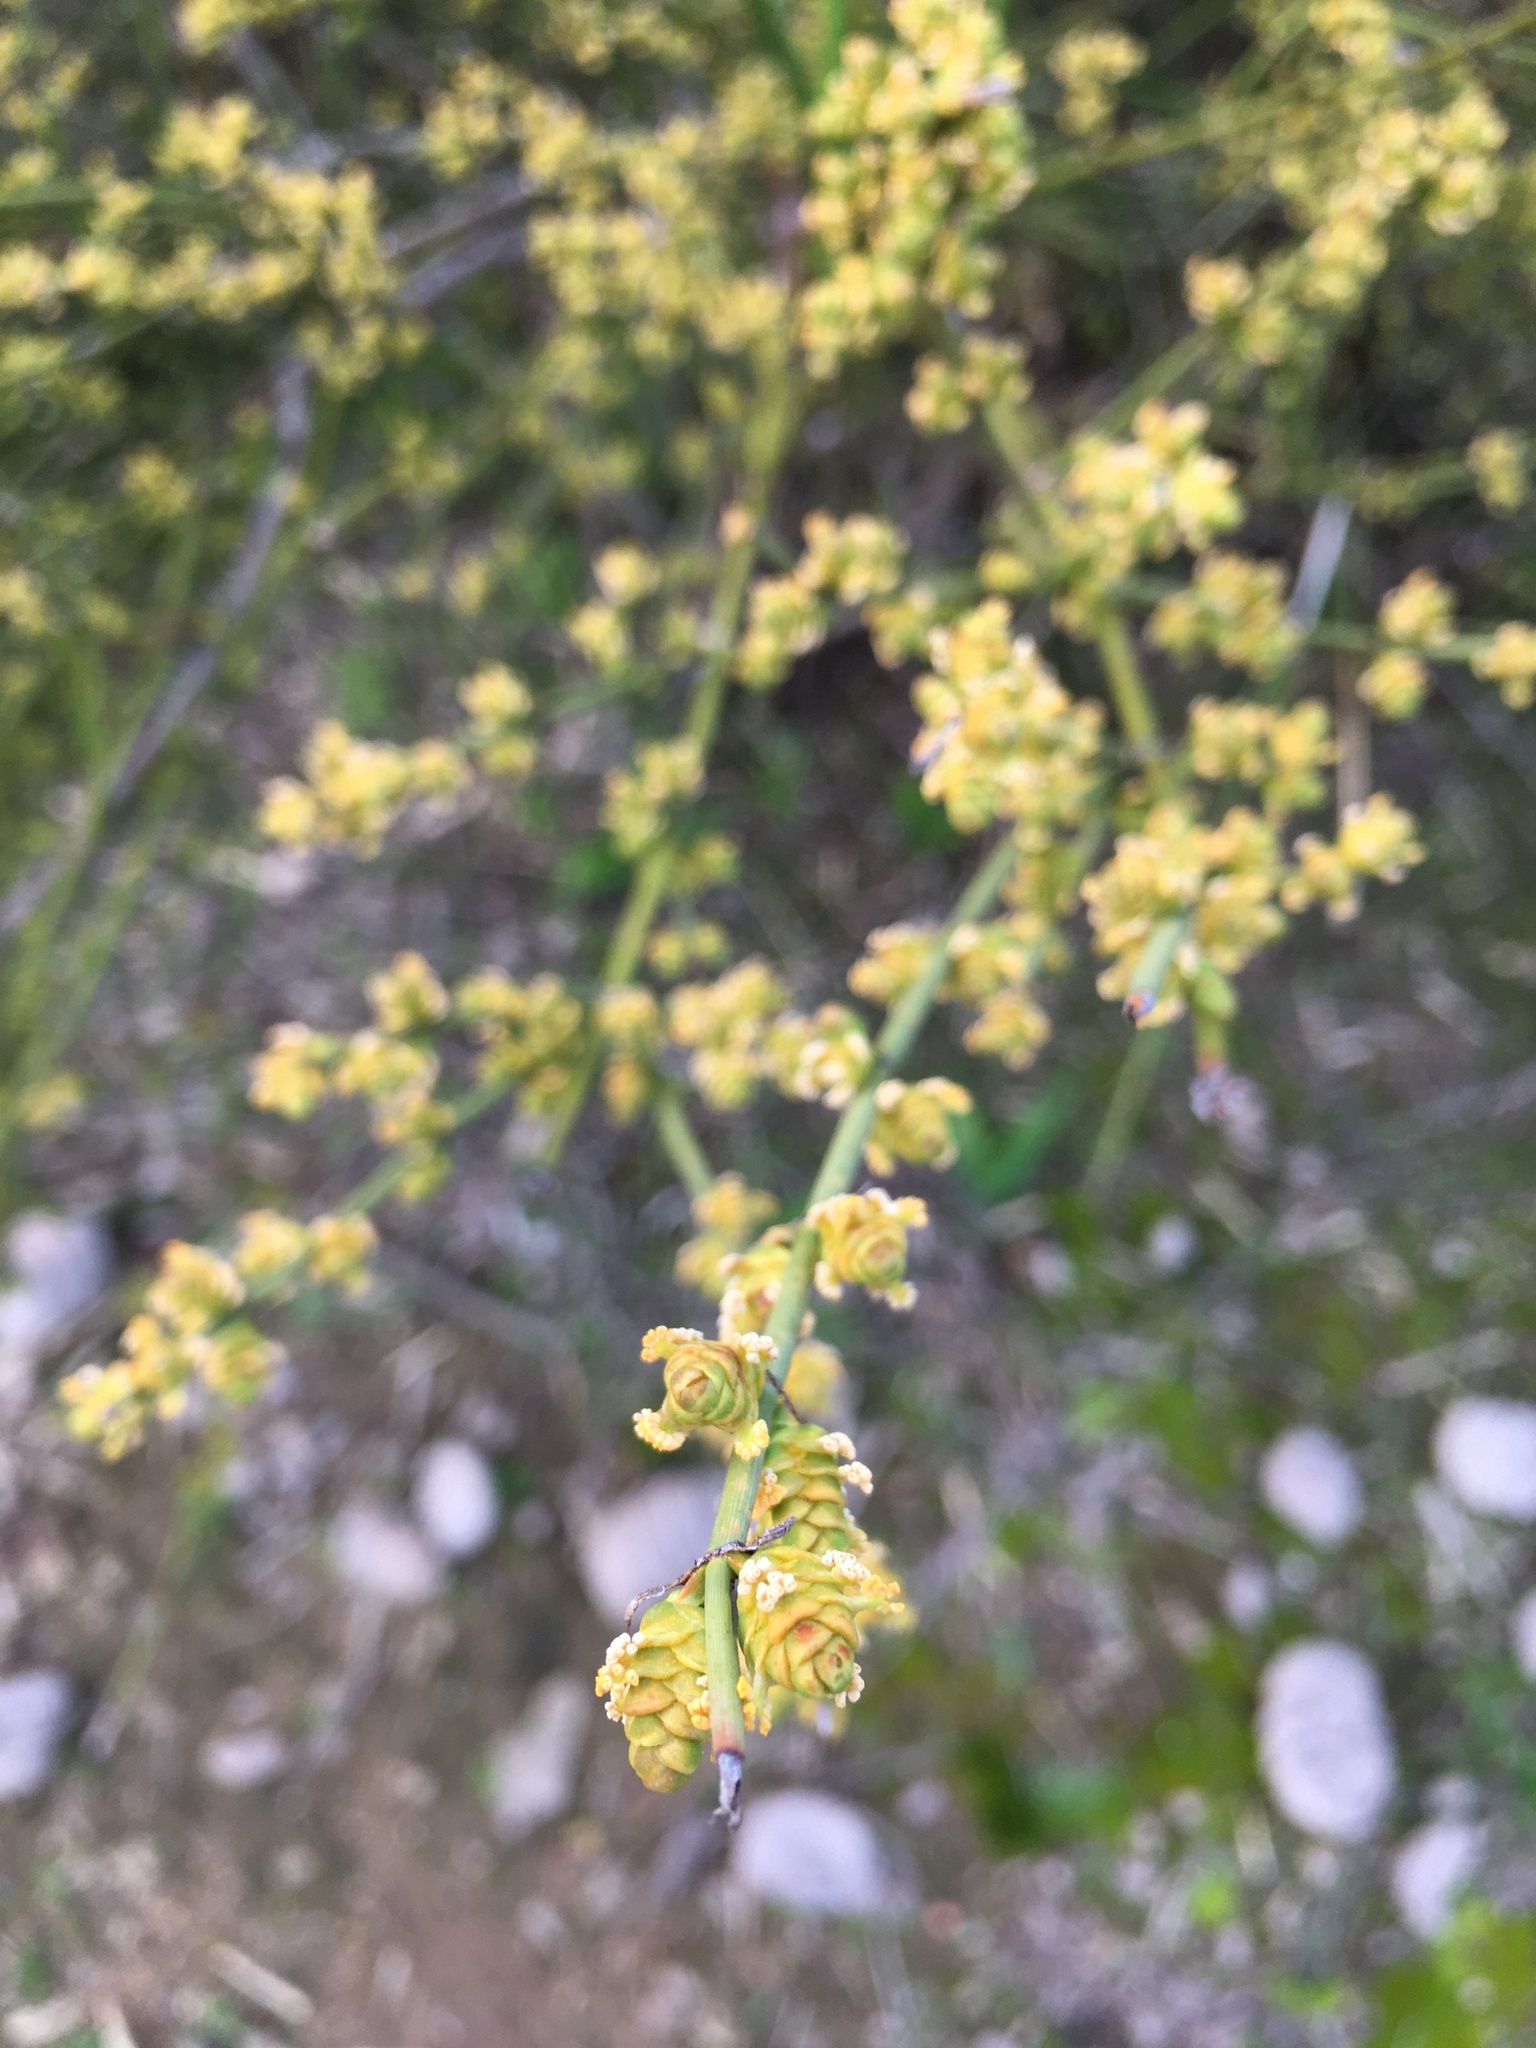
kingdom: Plantae
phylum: Tracheophyta
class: Gnetopsida
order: Ephedrales
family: Ephedraceae
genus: Ephedra
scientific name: Ephedra chilensis
